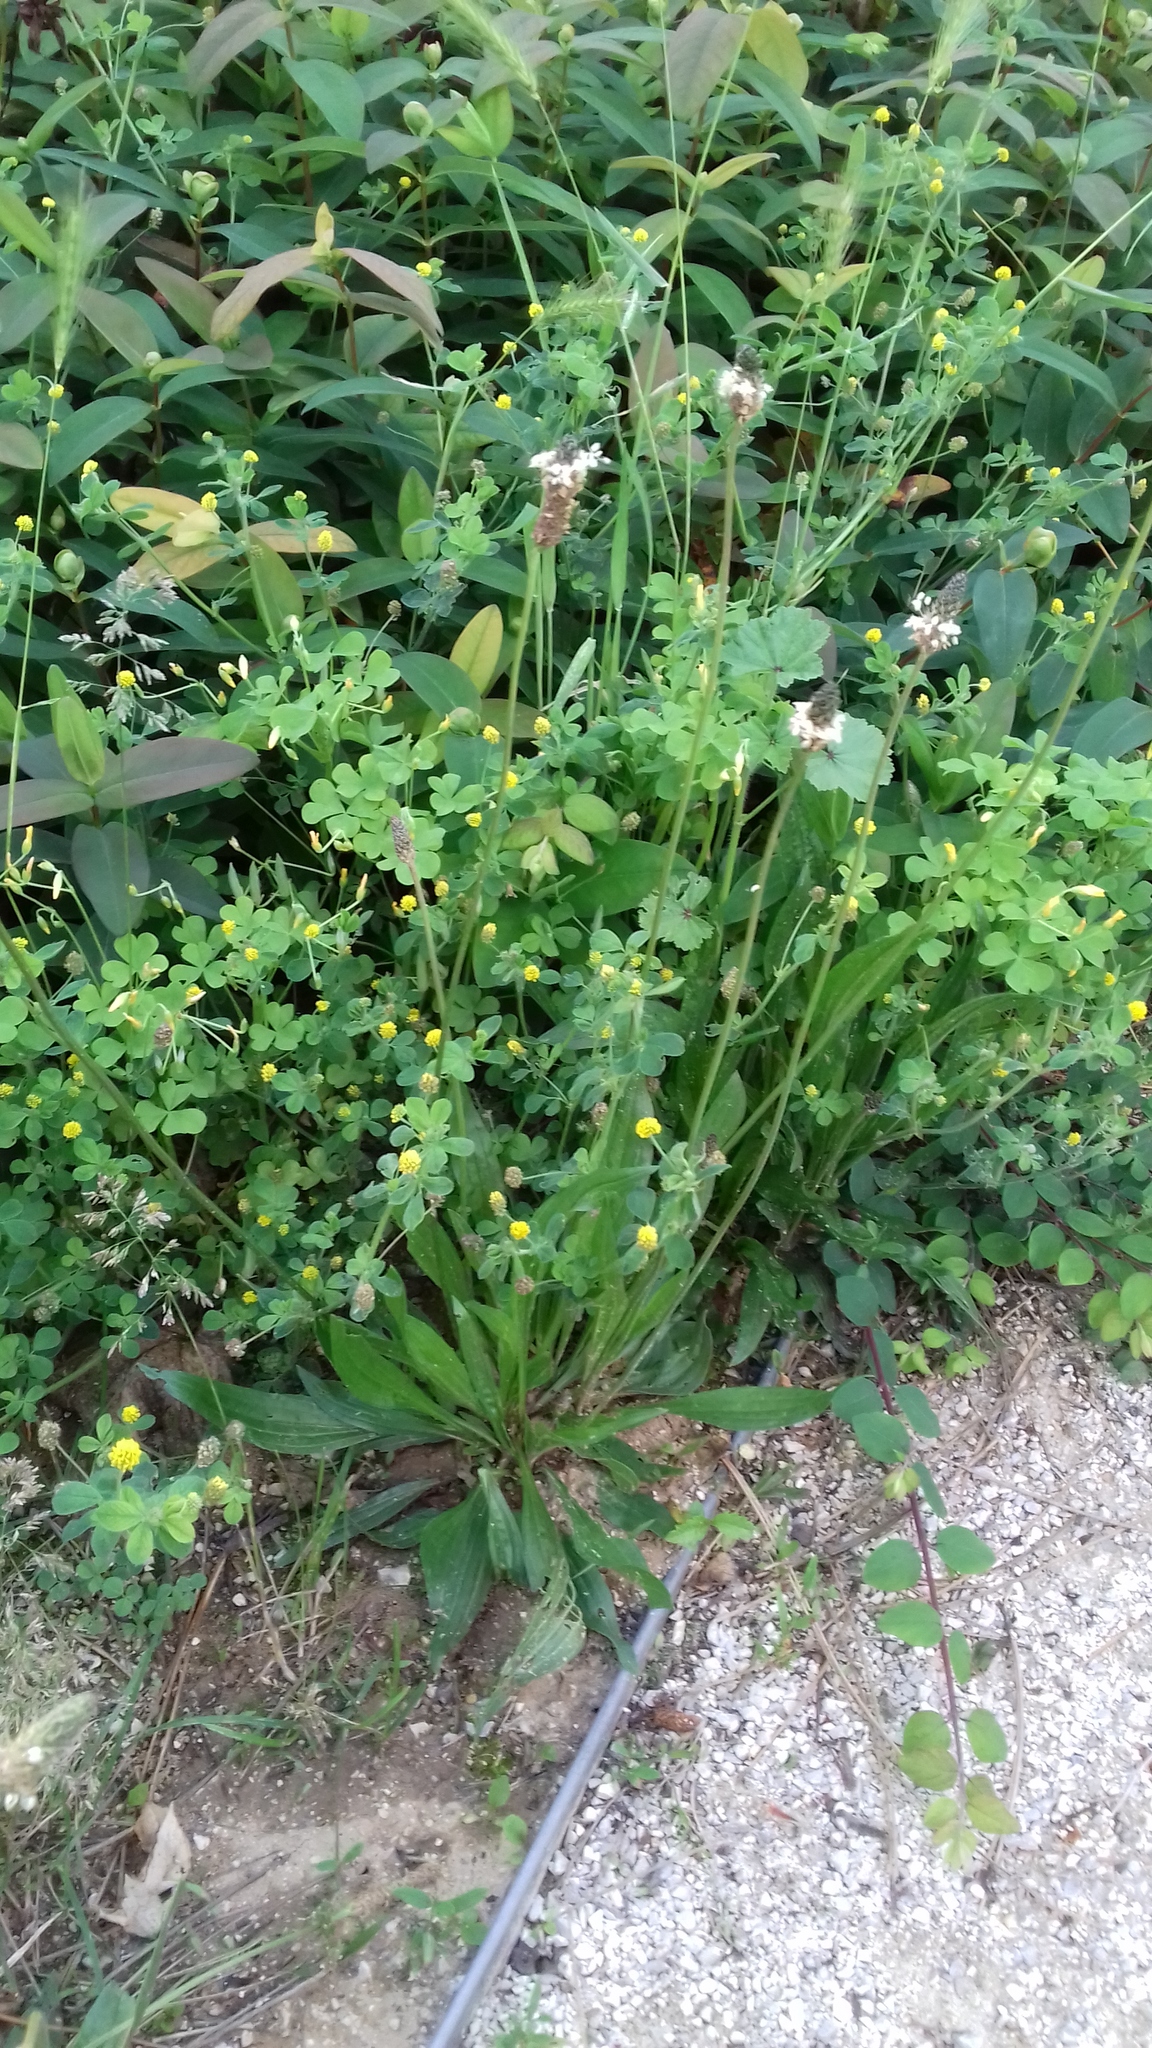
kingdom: Plantae
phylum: Tracheophyta
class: Magnoliopsida
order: Lamiales
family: Plantaginaceae
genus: Plantago
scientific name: Plantago lanceolata
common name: Ribwort plantain
